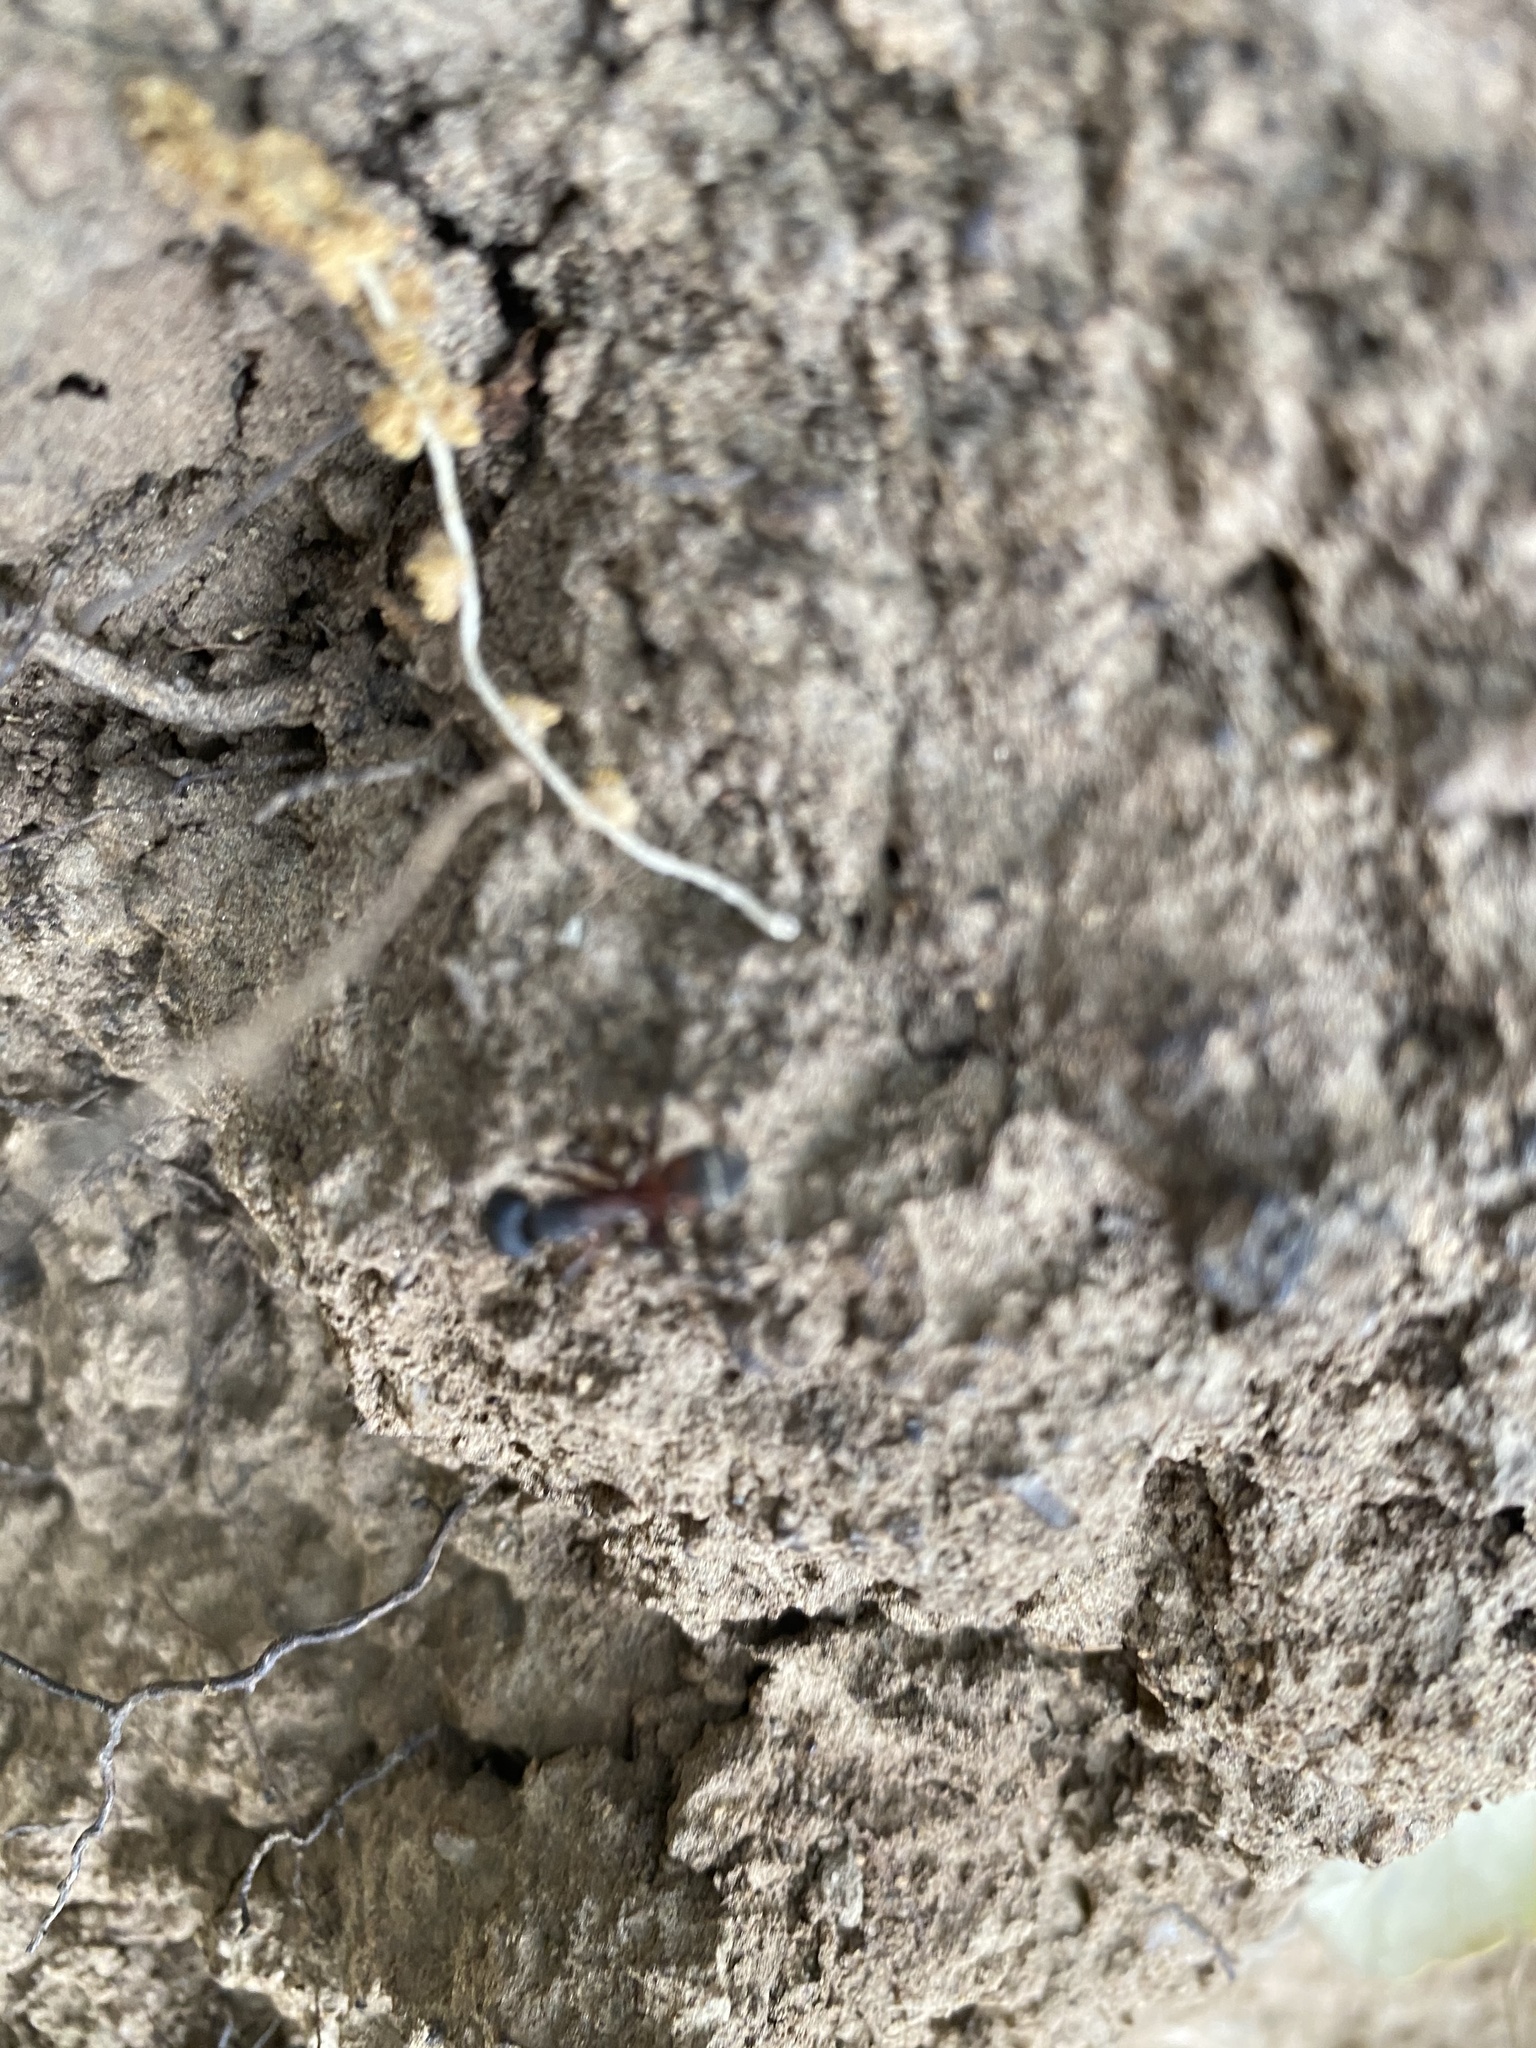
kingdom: Animalia
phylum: Arthropoda
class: Insecta
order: Hymenoptera
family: Formicidae
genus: Camponotus
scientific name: Camponotus cruentatus
